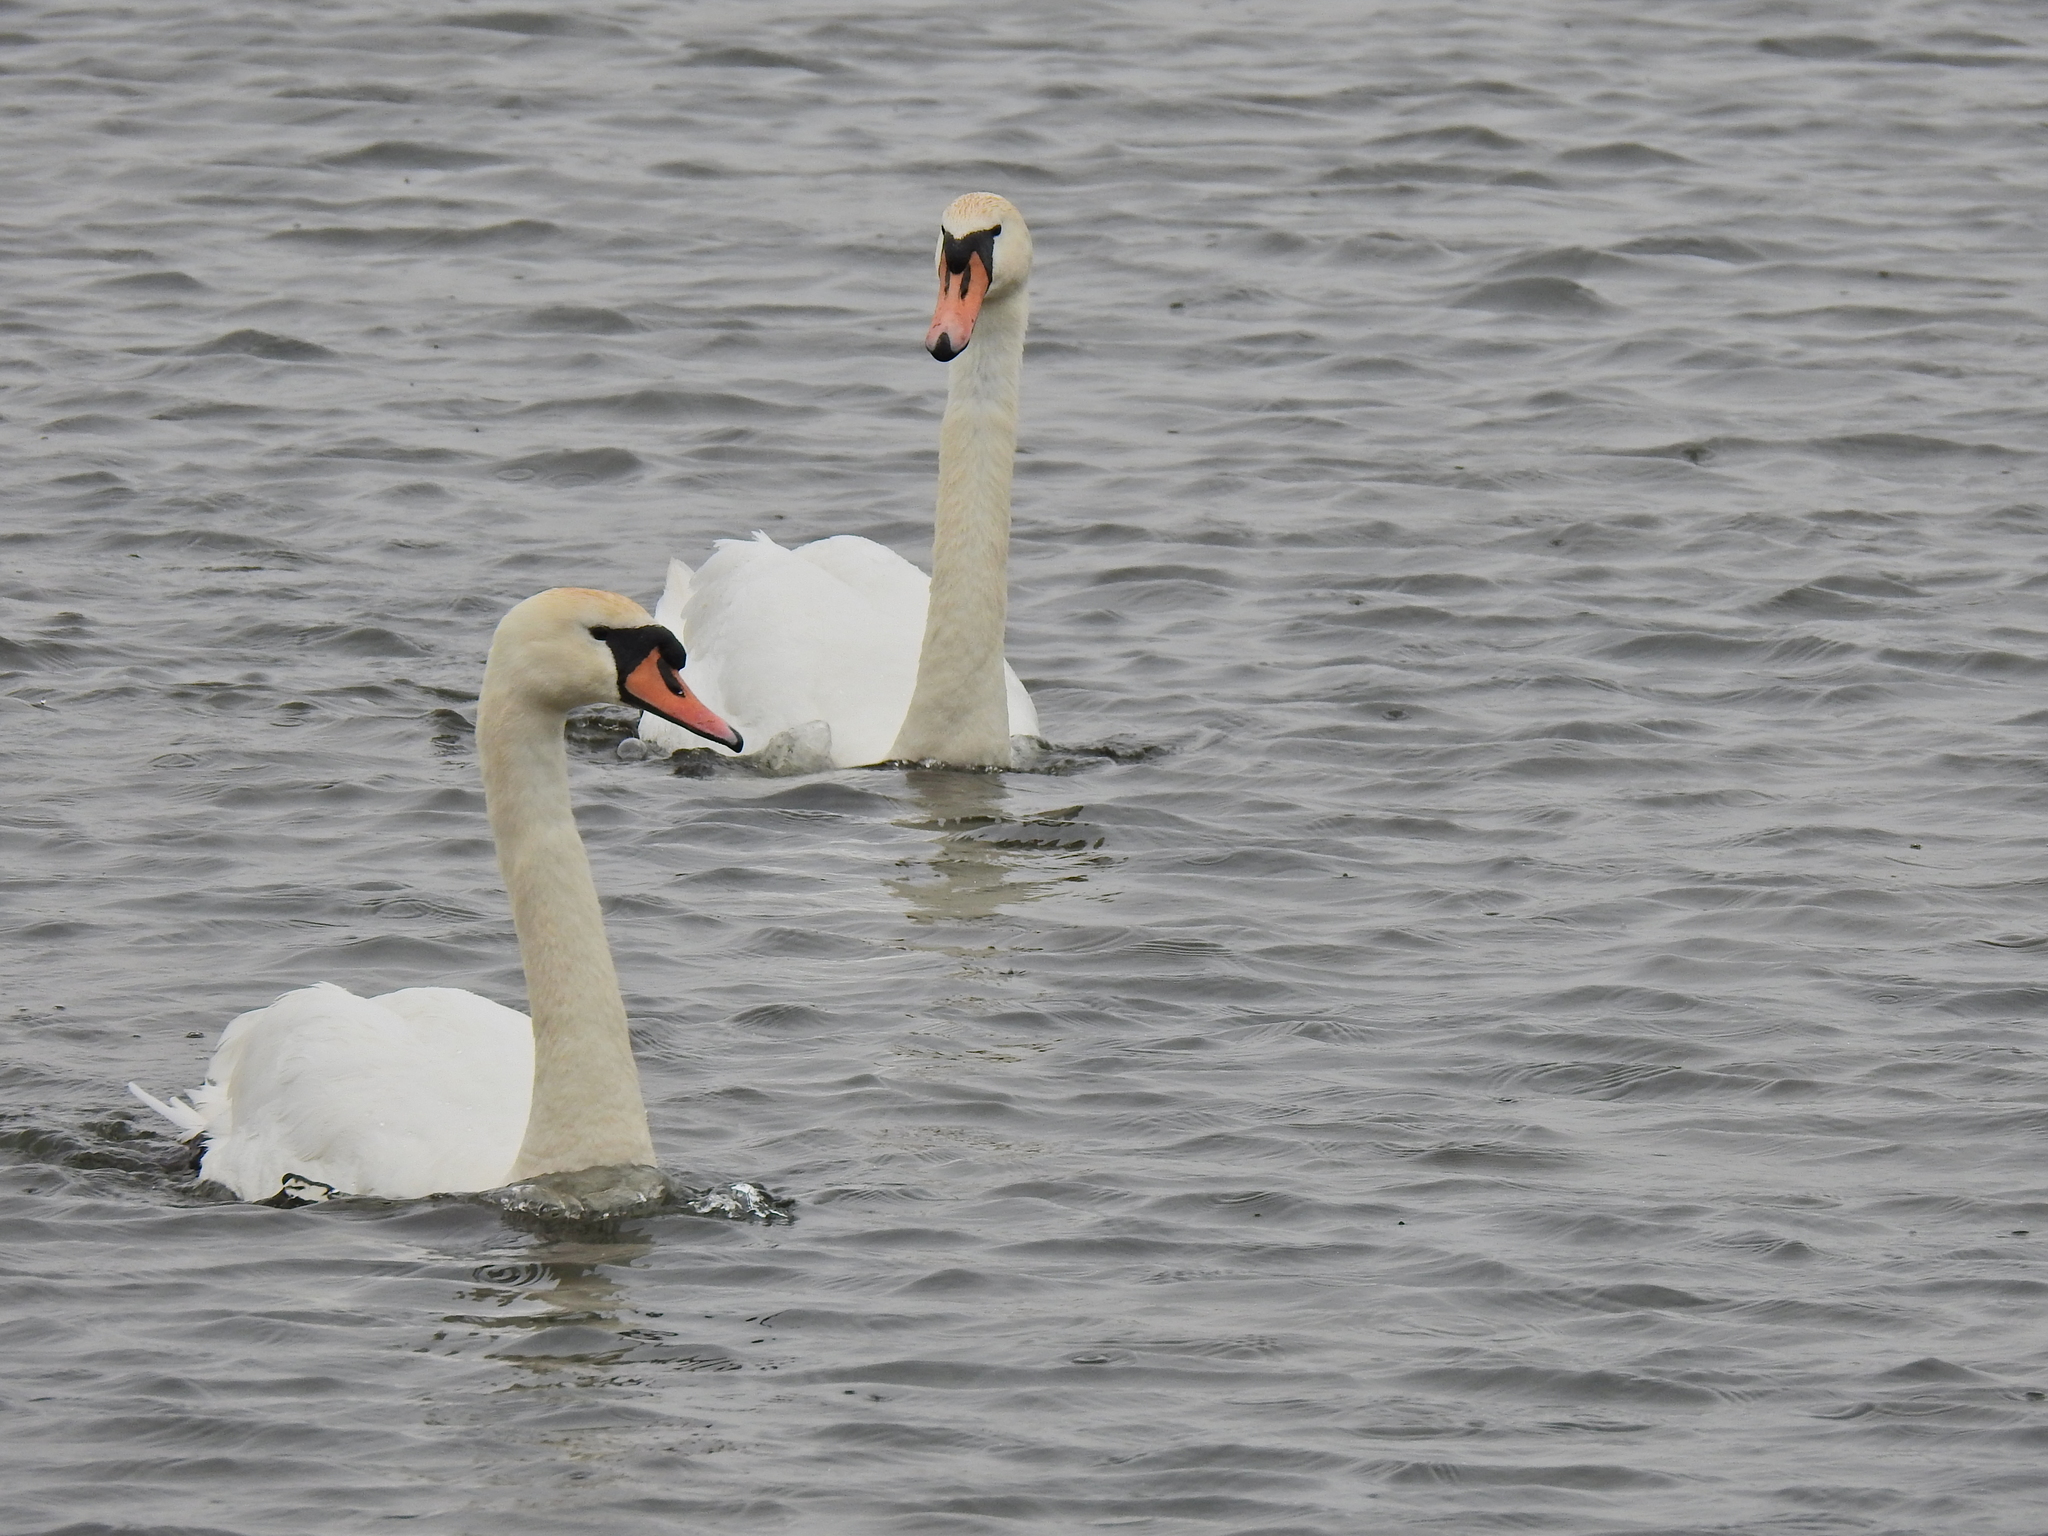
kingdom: Animalia
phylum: Chordata
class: Aves
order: Anseriformes
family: Anatidae
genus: Cygnus
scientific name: Cygnus olor
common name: Mute swan
